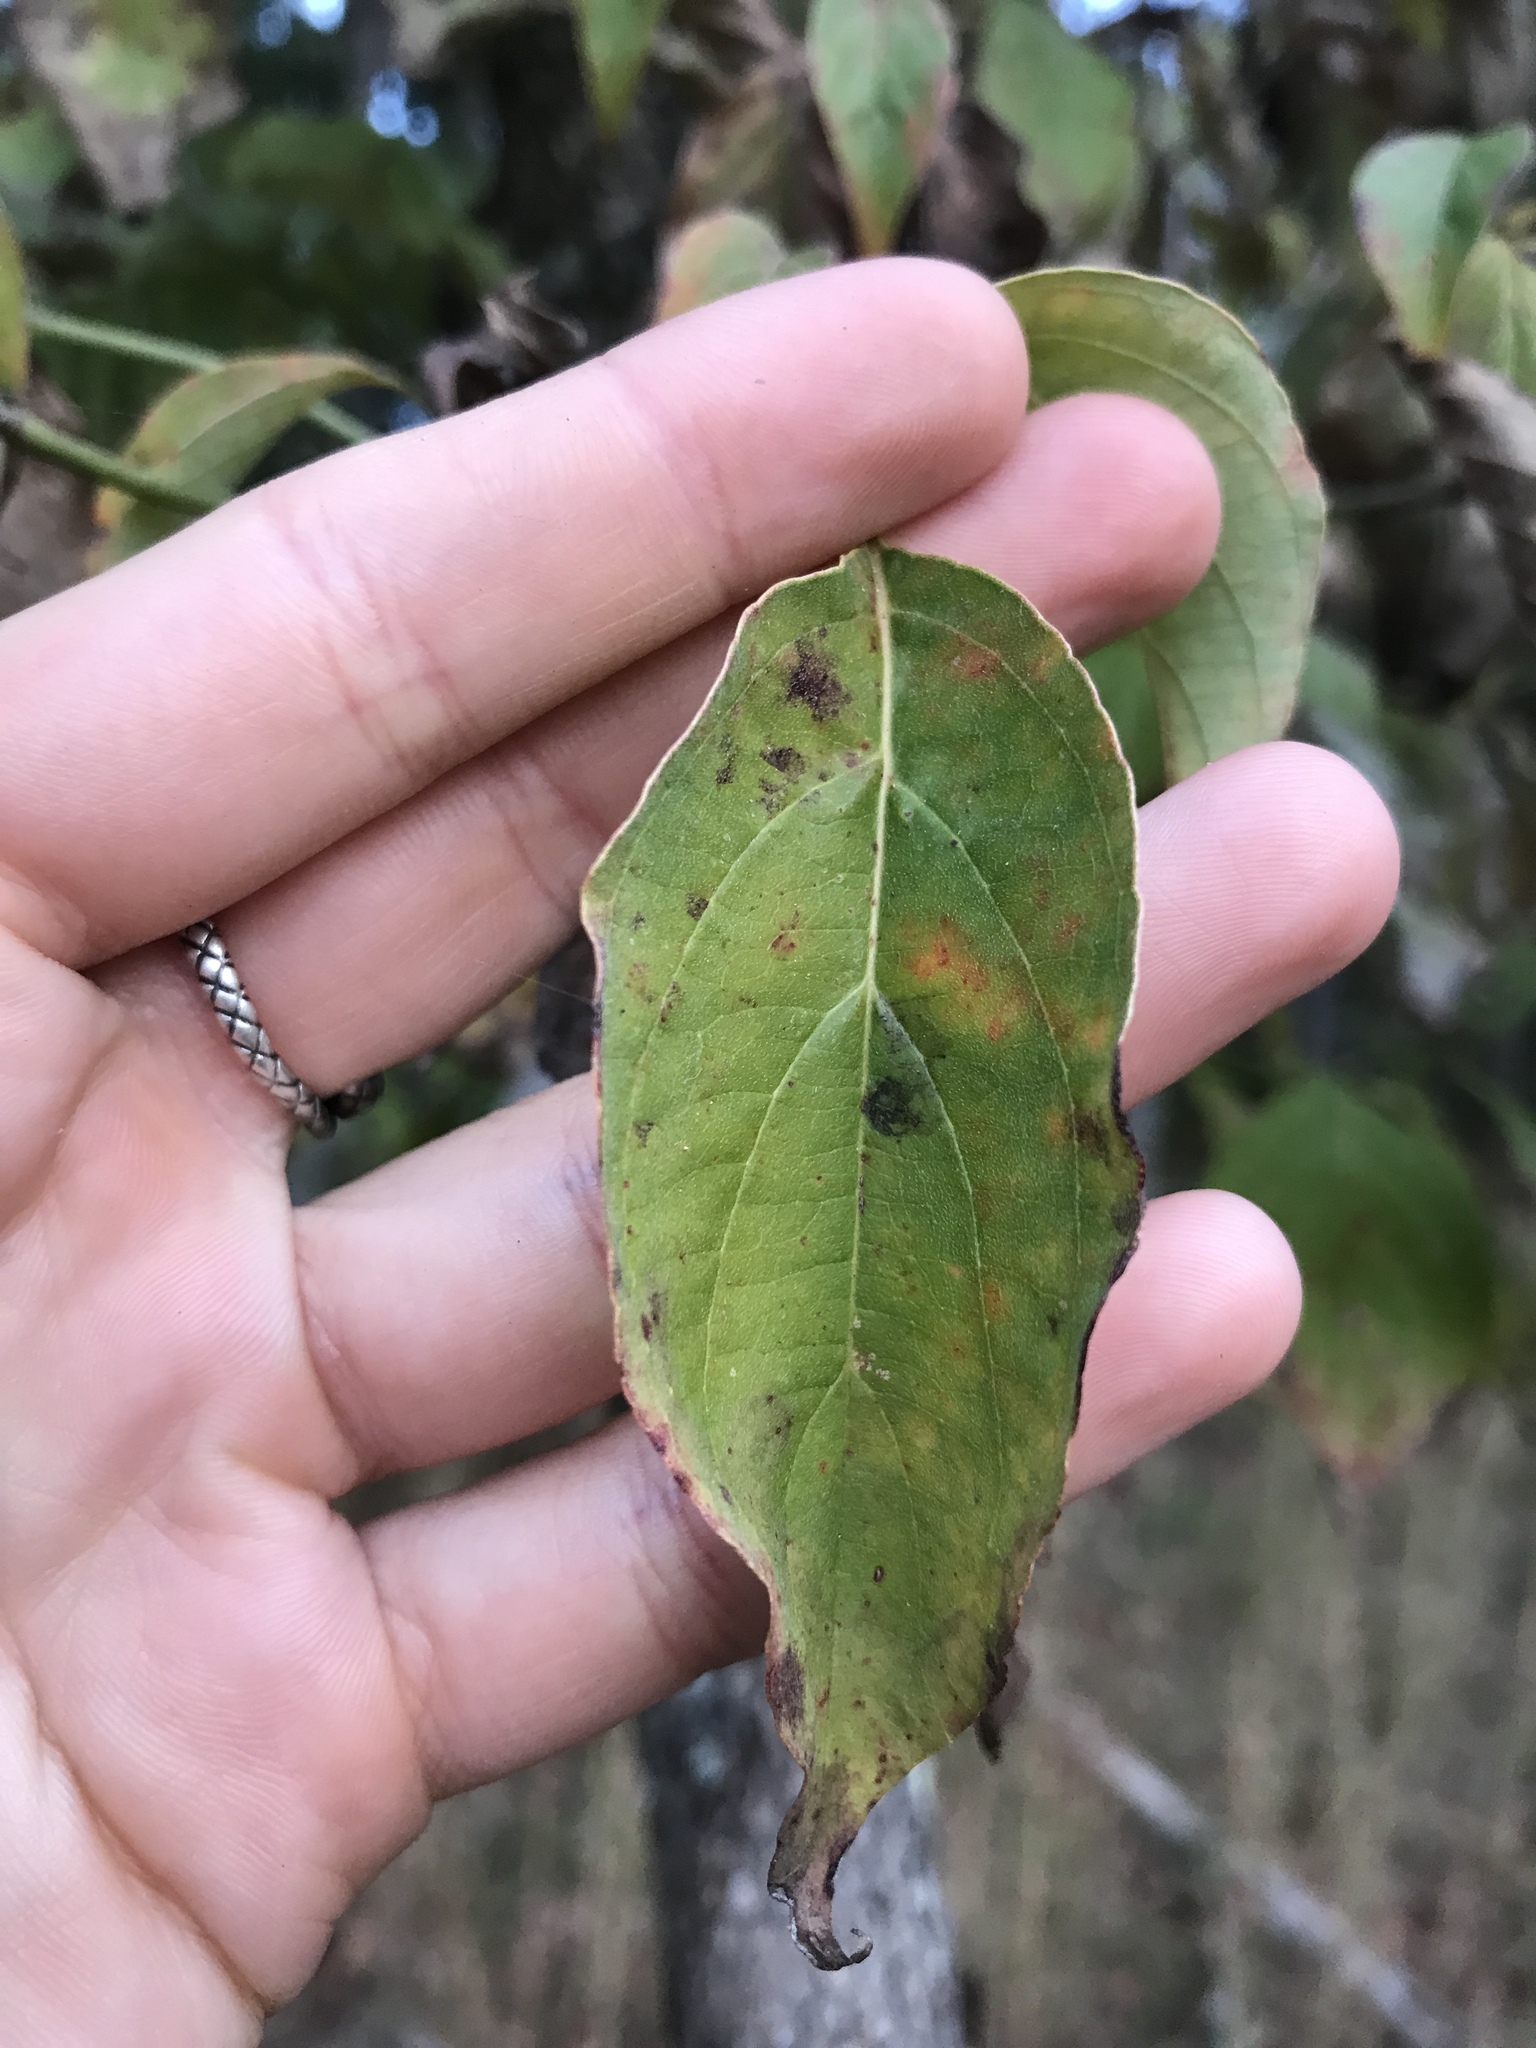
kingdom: Plantae
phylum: Tracheophyta
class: Magnoliopsida
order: Cornales
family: Cornaceae
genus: Cornus
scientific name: Cornus florida
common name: Flowering dogwood
